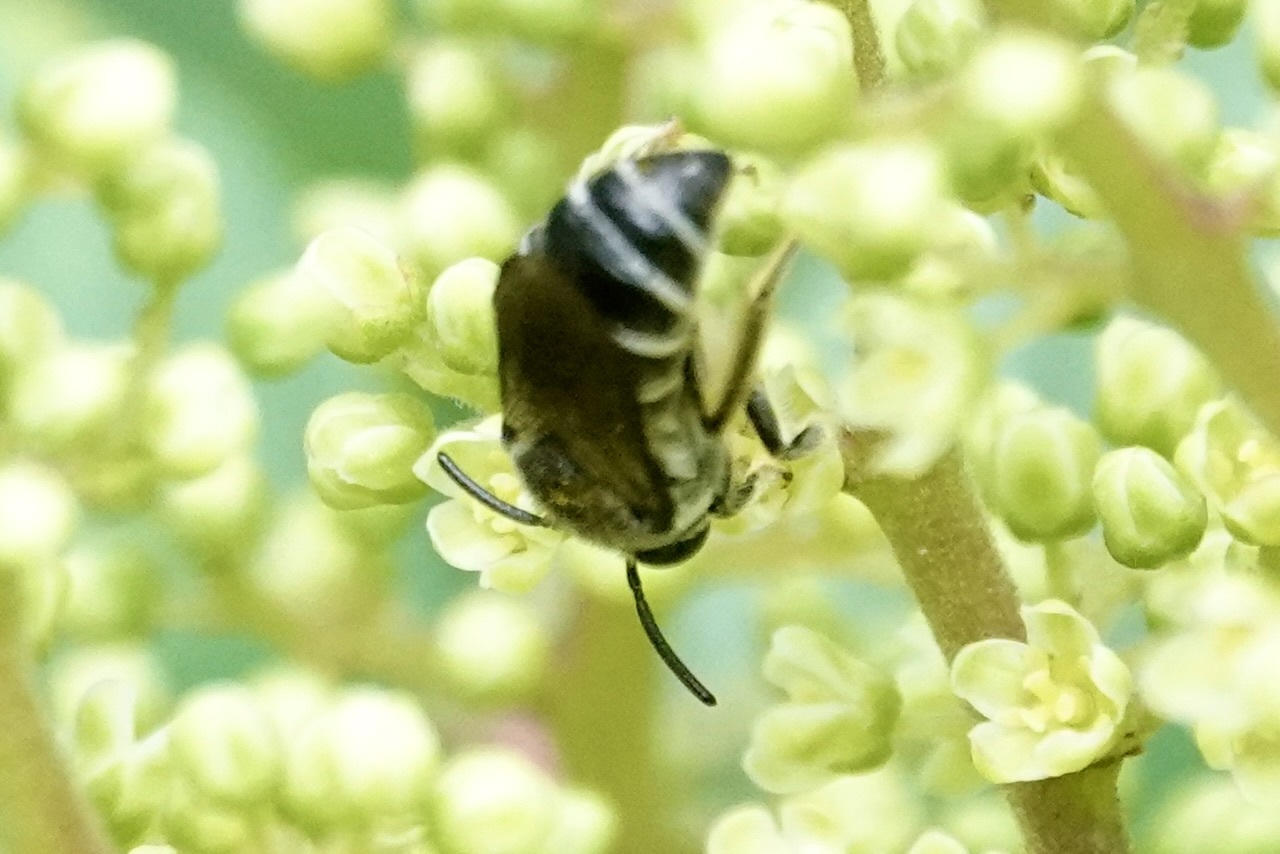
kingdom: Animalia
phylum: Arthropoda
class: Insecta
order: Hymenoptera
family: Colletidae
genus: Colletes
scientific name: Colletes nudus
